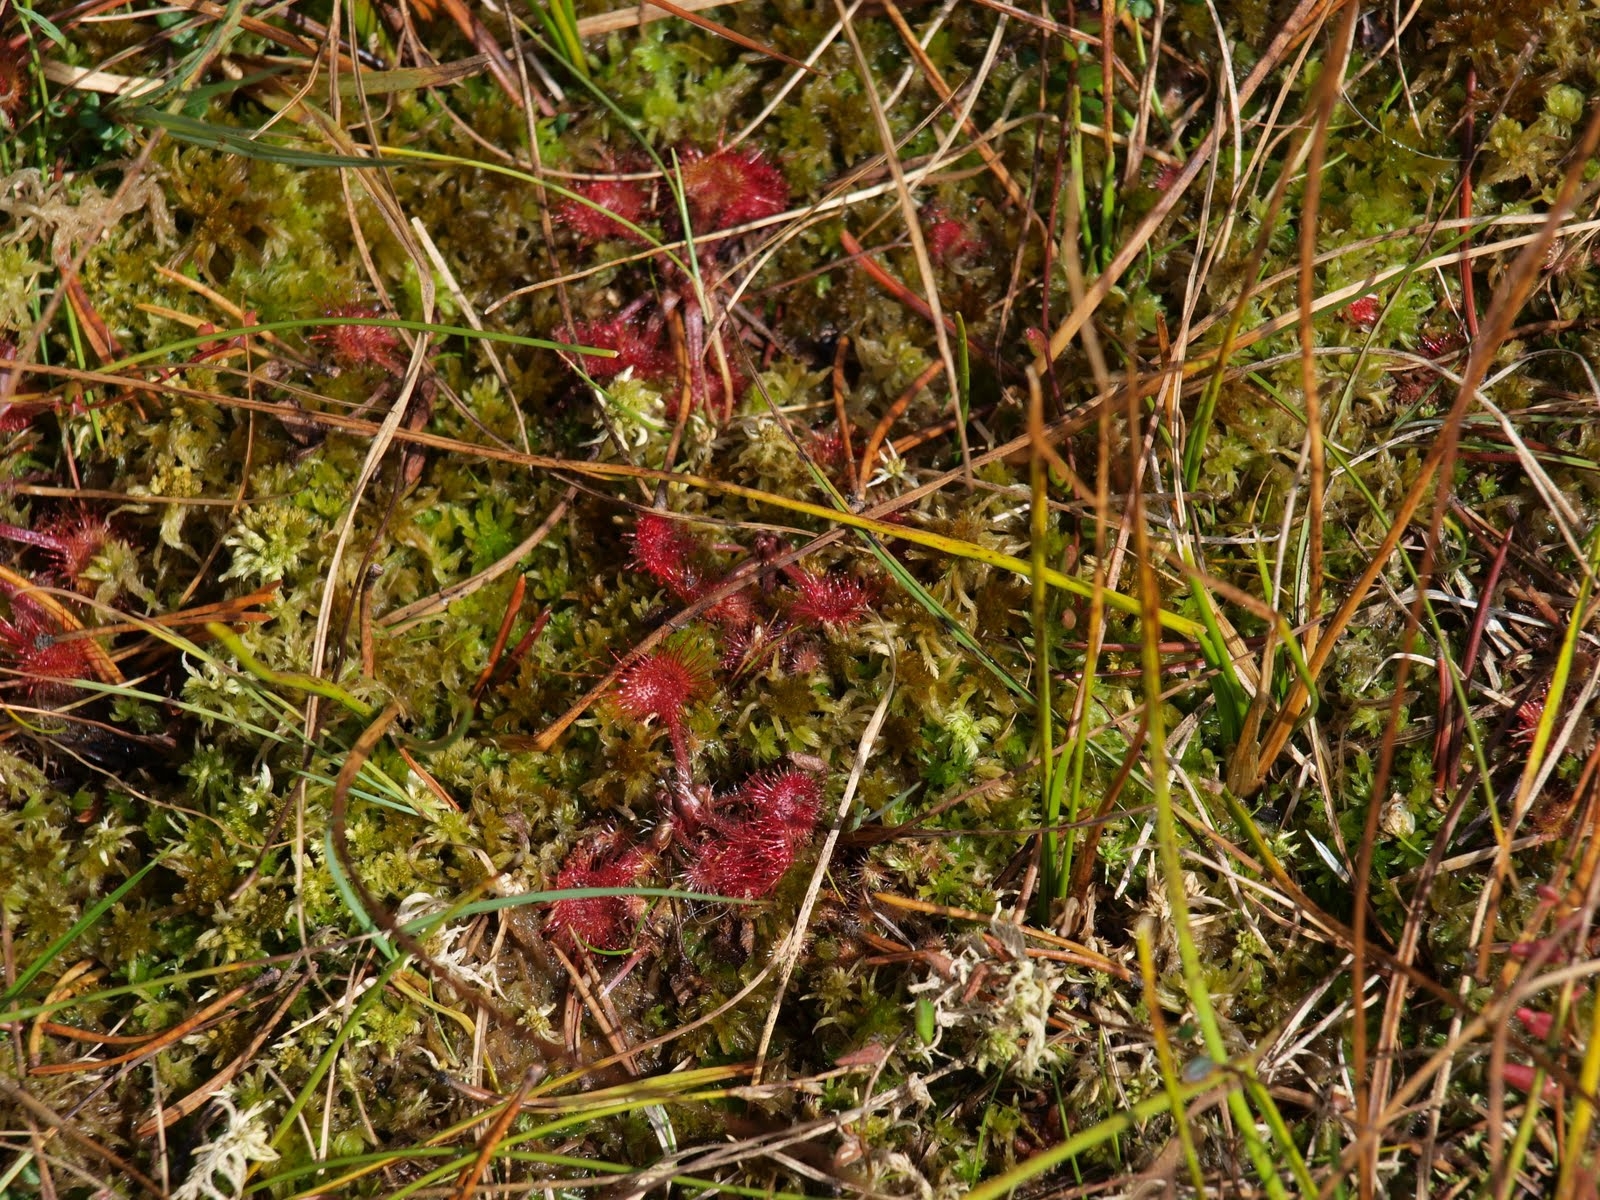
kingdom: Plantae
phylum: Tracheophyta
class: Magnoliopsida
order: Caryophyllales
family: Droseraceae
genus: Drosera
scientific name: Drosera rotundifolia
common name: Round-leaved sundew
